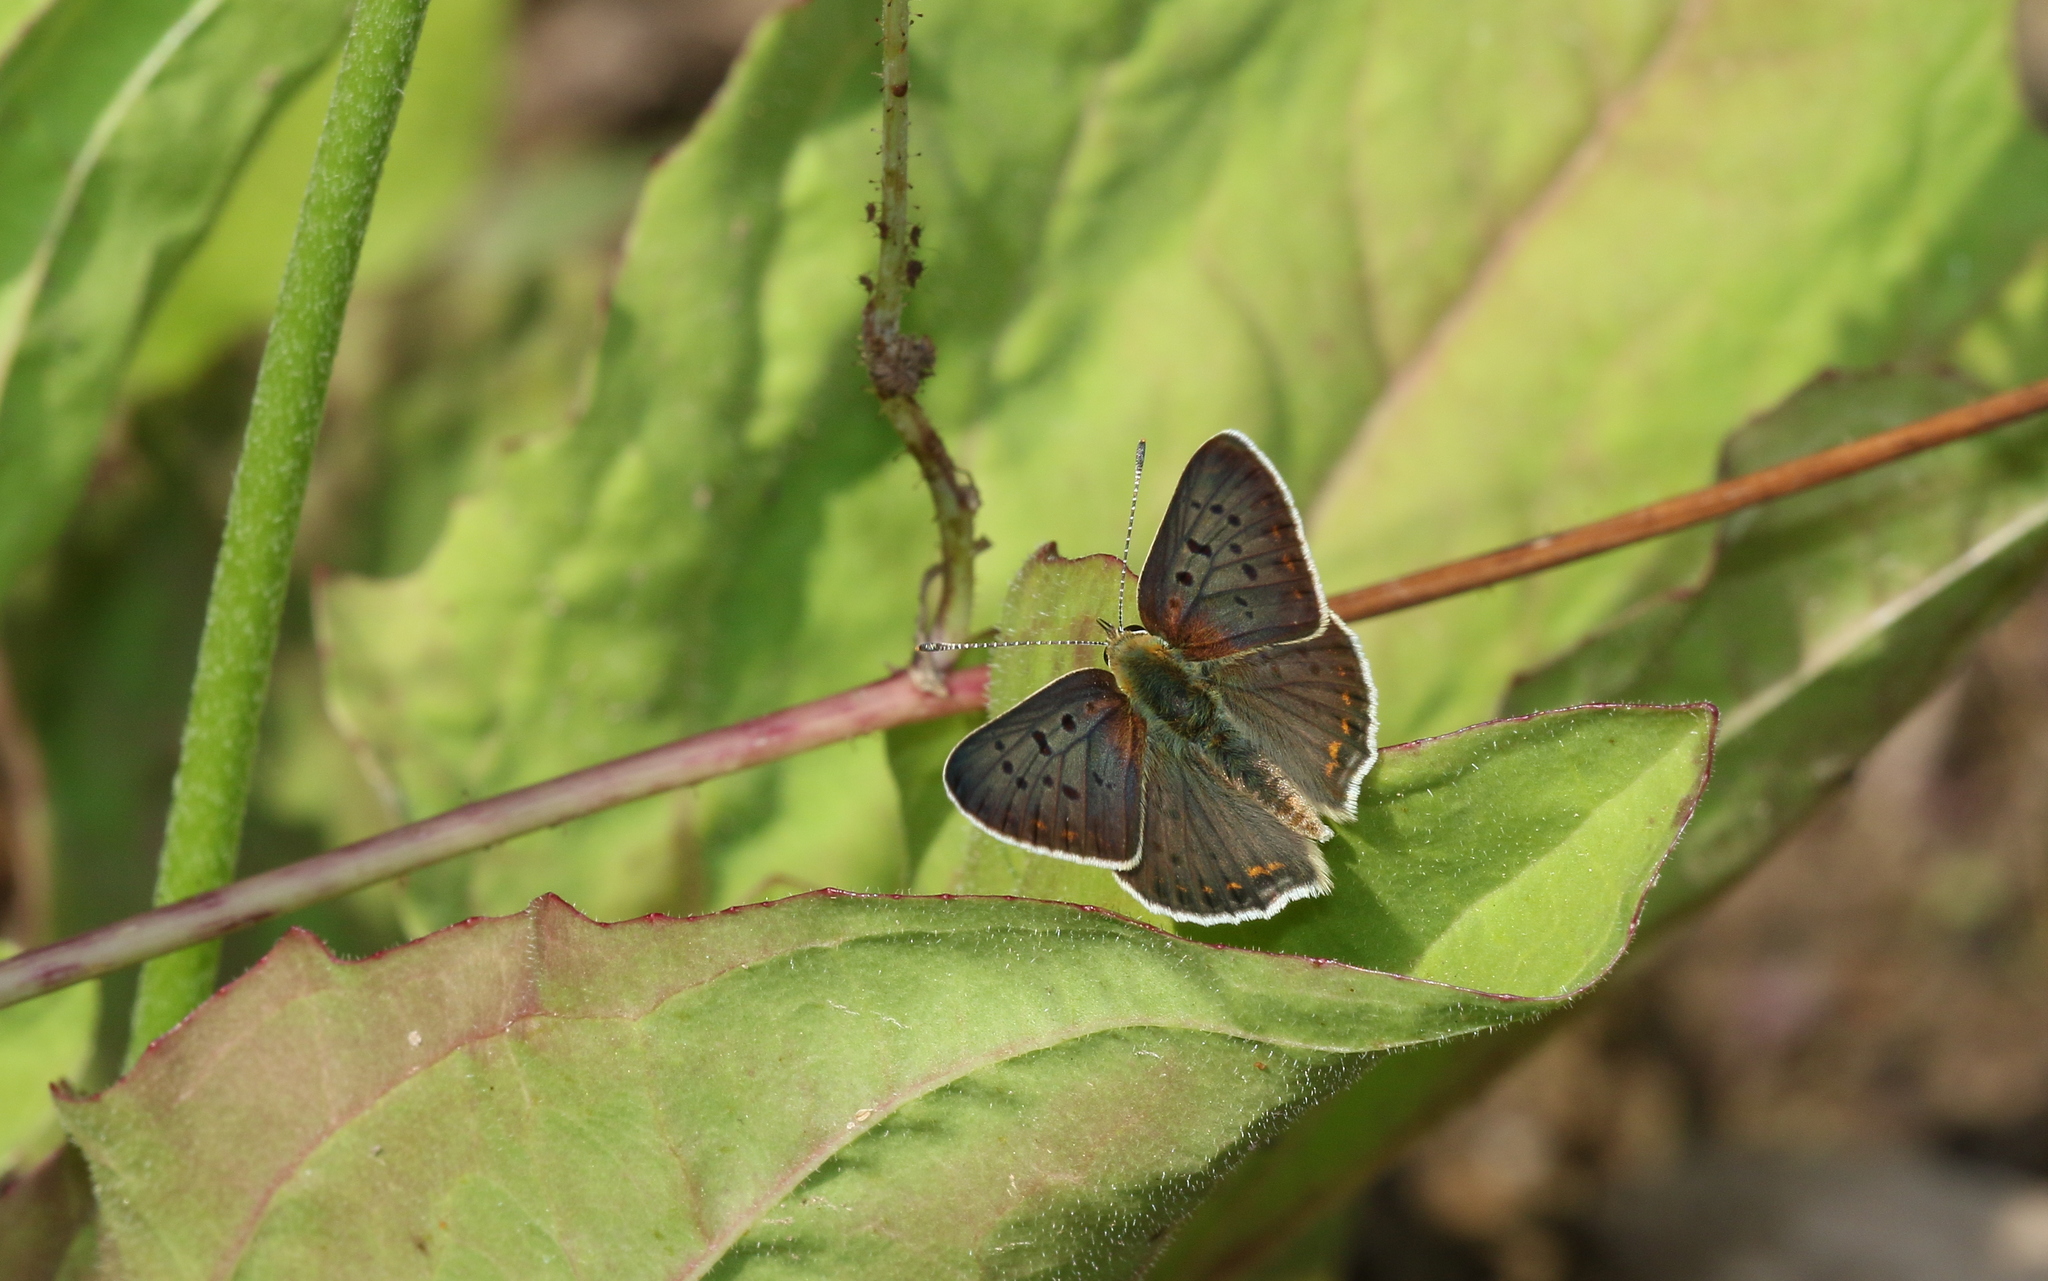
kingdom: Animalia
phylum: Arthropoda
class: Insecta
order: Lepidoptera
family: Lycaenidae
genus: Loweia
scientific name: Loweia tityrus
